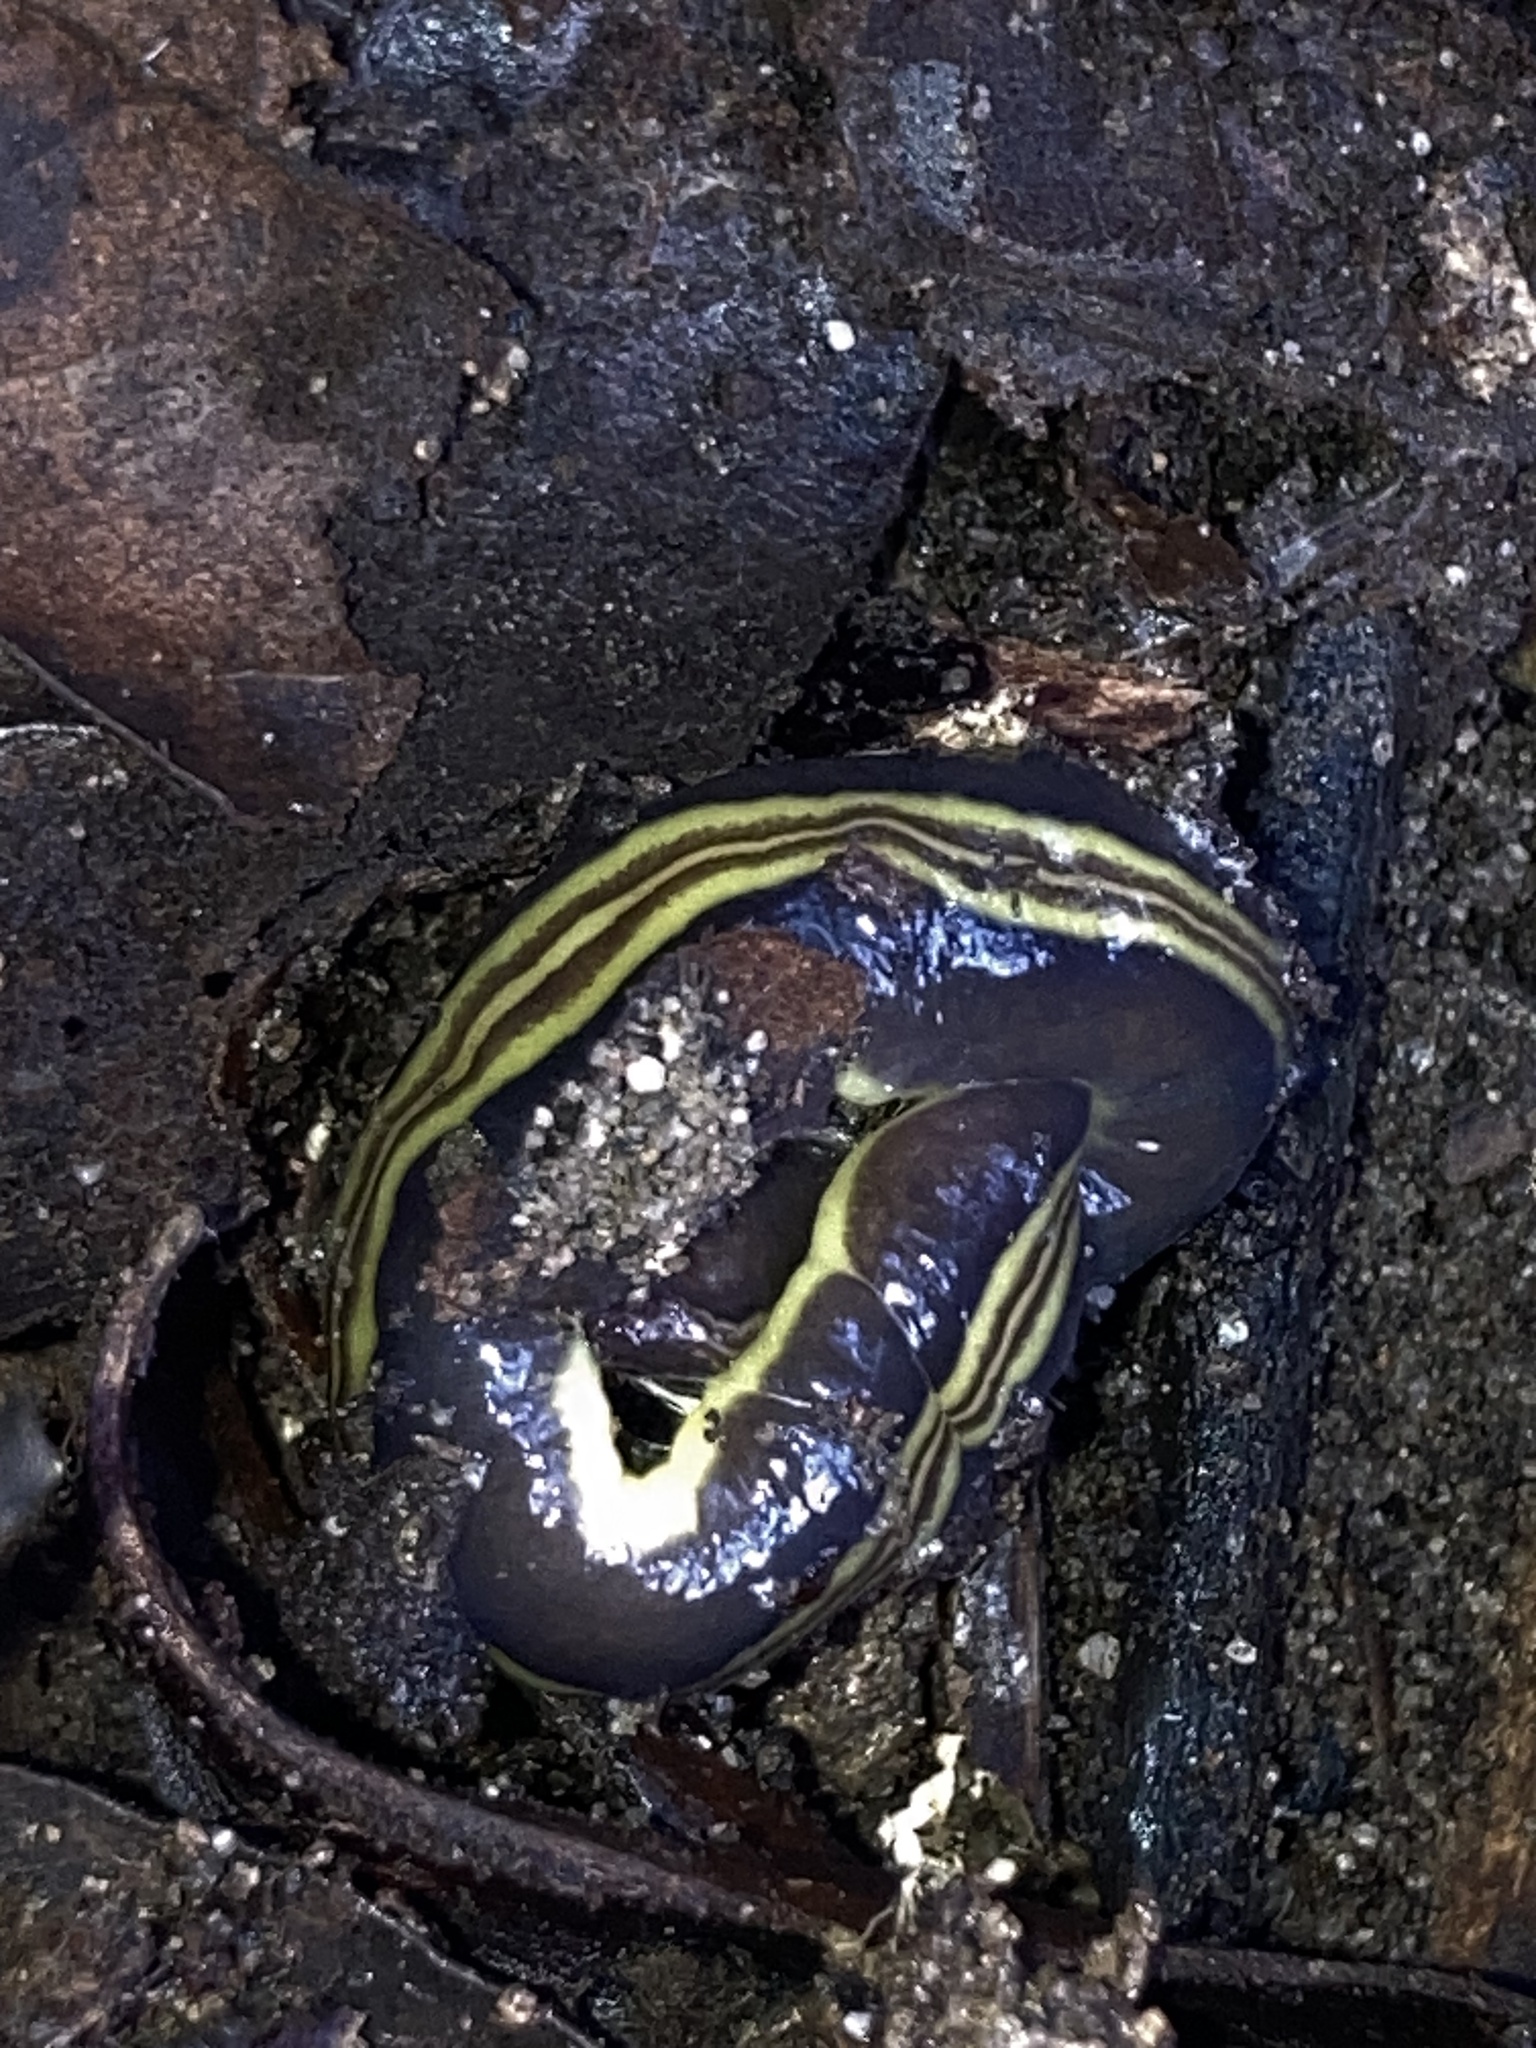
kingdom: Animalia
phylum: Platyhelminthes
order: Tricladida
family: Geoplanidae
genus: Caenoplana
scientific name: Caenoplana variegata
